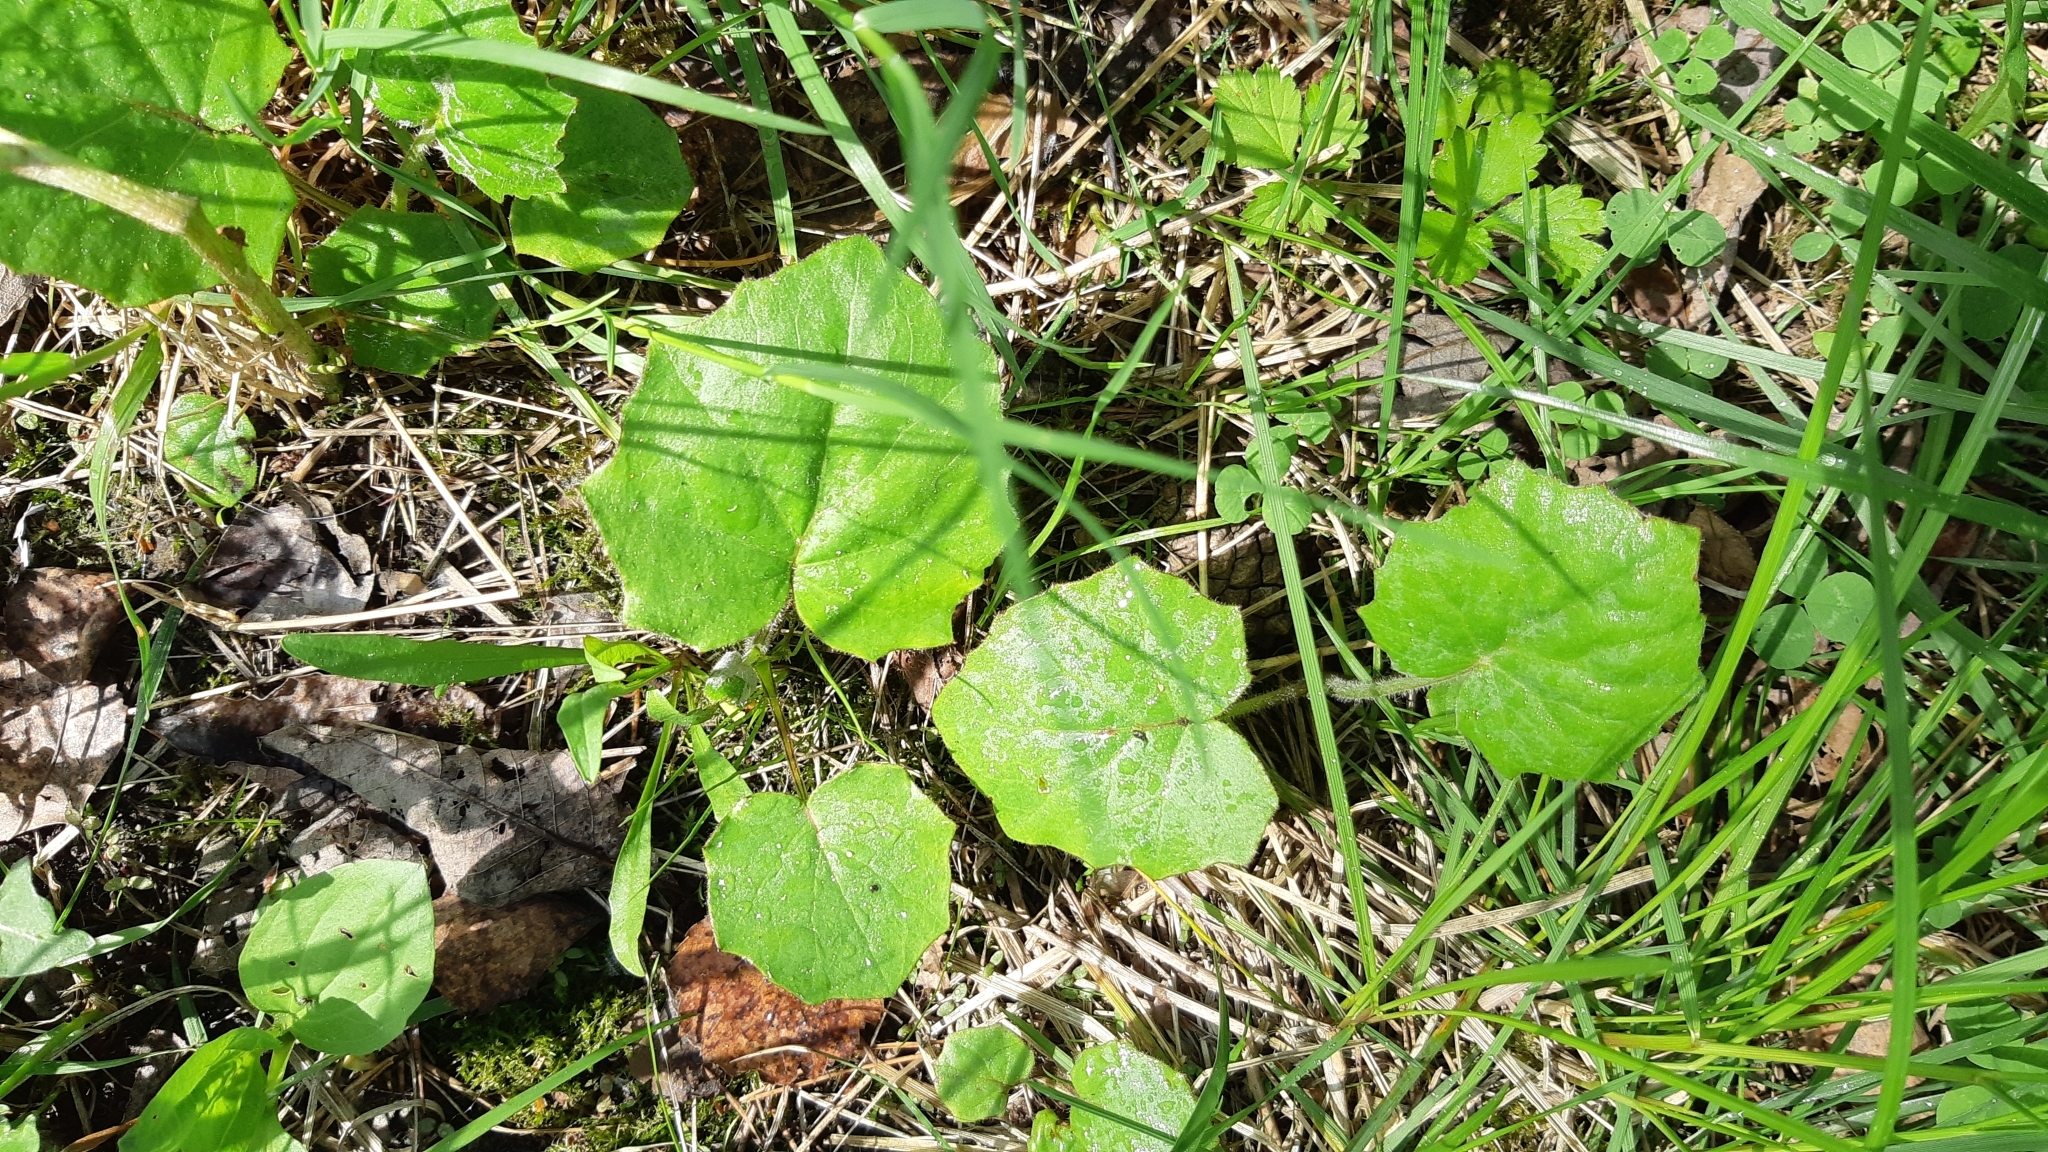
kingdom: Plantae
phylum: Tracheophyta
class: Magnoliopsida
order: Asterales
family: Asteraceae
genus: Tussilago
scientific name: Tussilago farfara
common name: Coltsfoot
